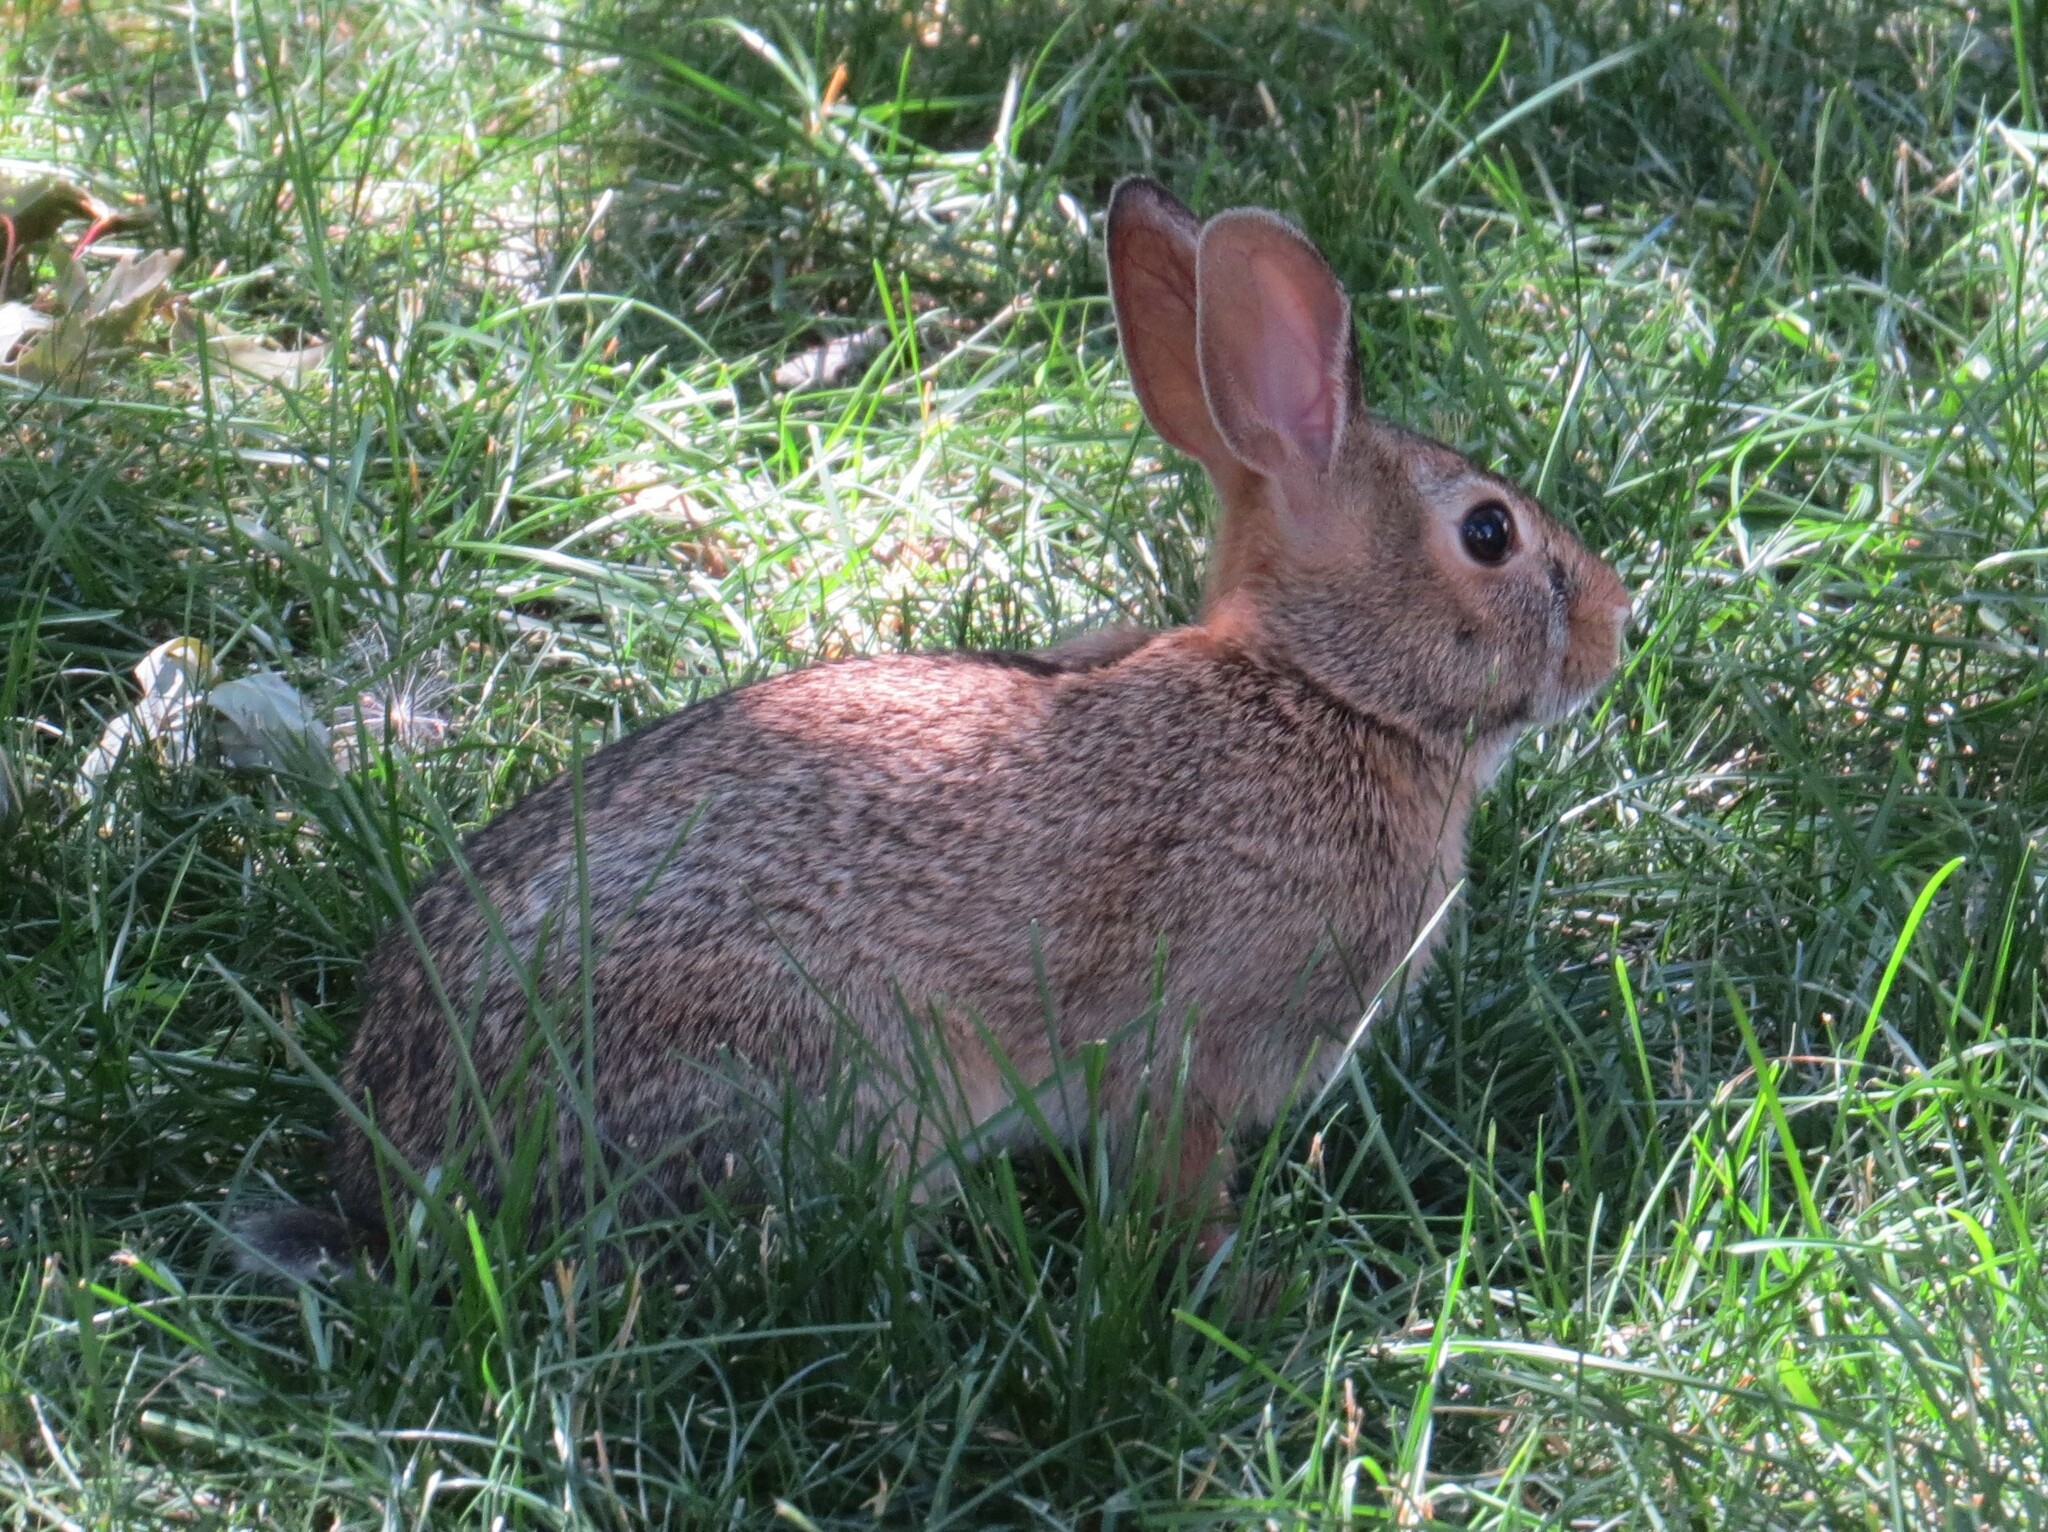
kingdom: Animalia
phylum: Chordata
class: Mammalia
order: Lagomorpha
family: Leporidae
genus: Sylvilagus
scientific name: Sylvilagus floridanus
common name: Eastern cottontail
